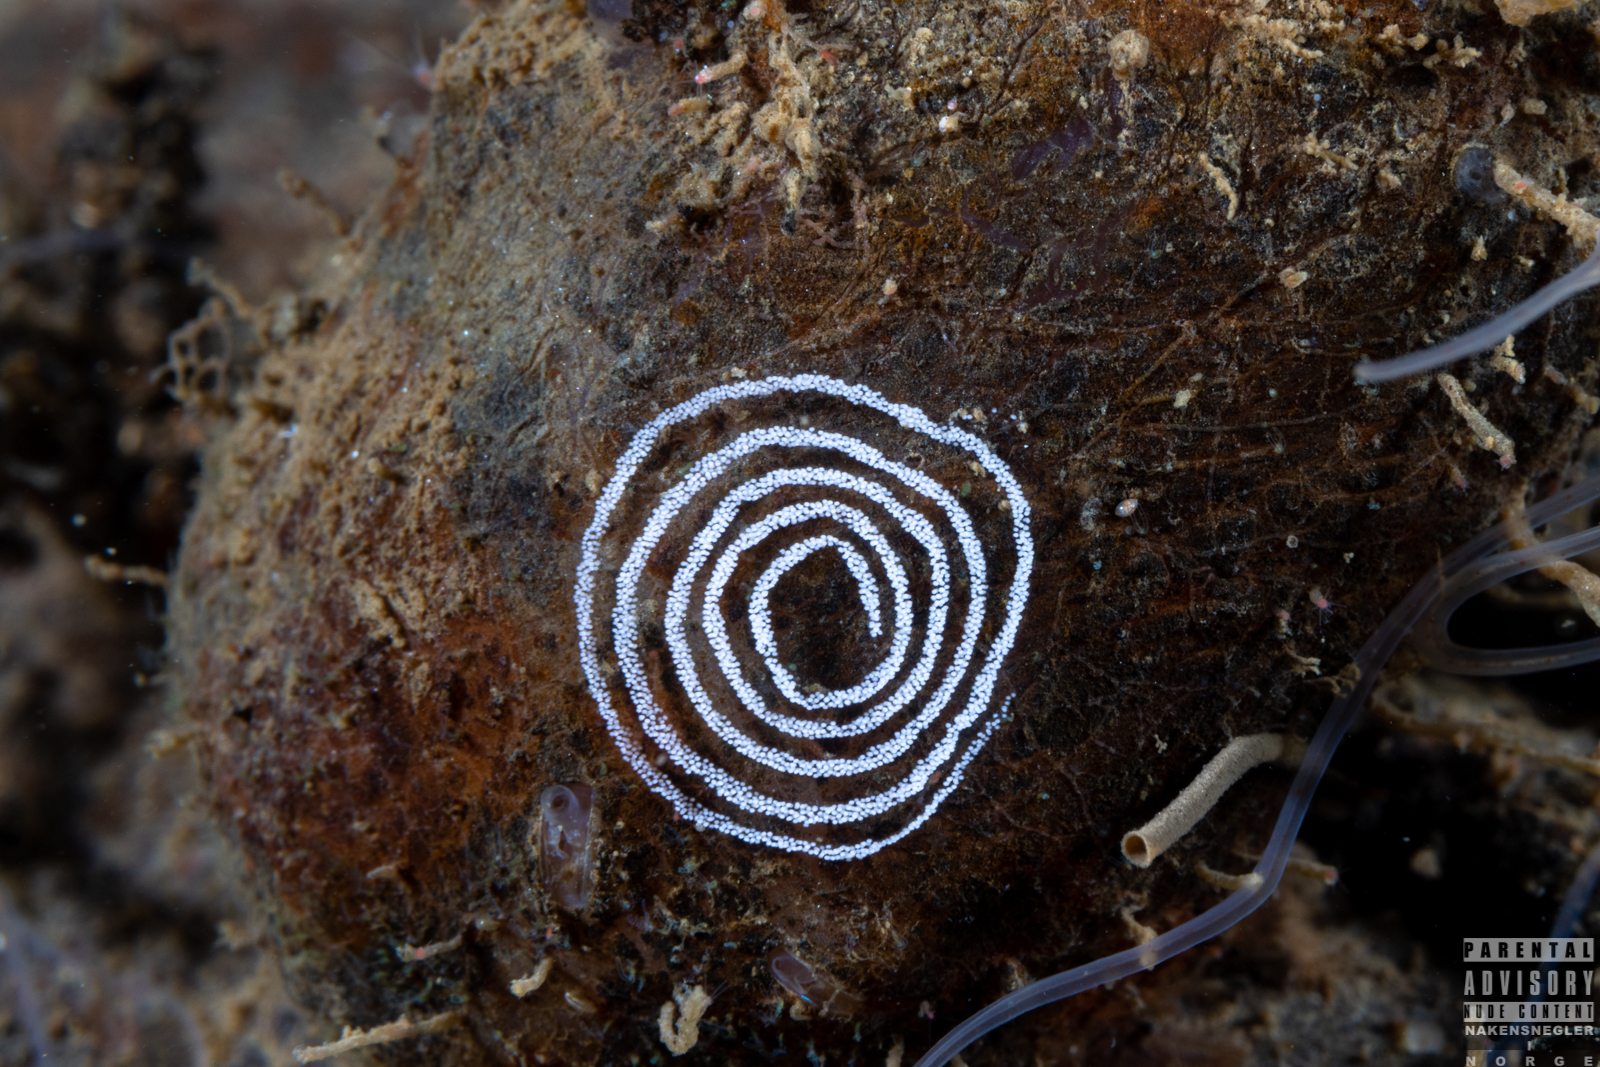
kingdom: Animalia
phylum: Mollusca
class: Gastropoda
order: Nudibranchia
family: Coryphellidae
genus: Coryphella
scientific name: Coryphella verrucosa
